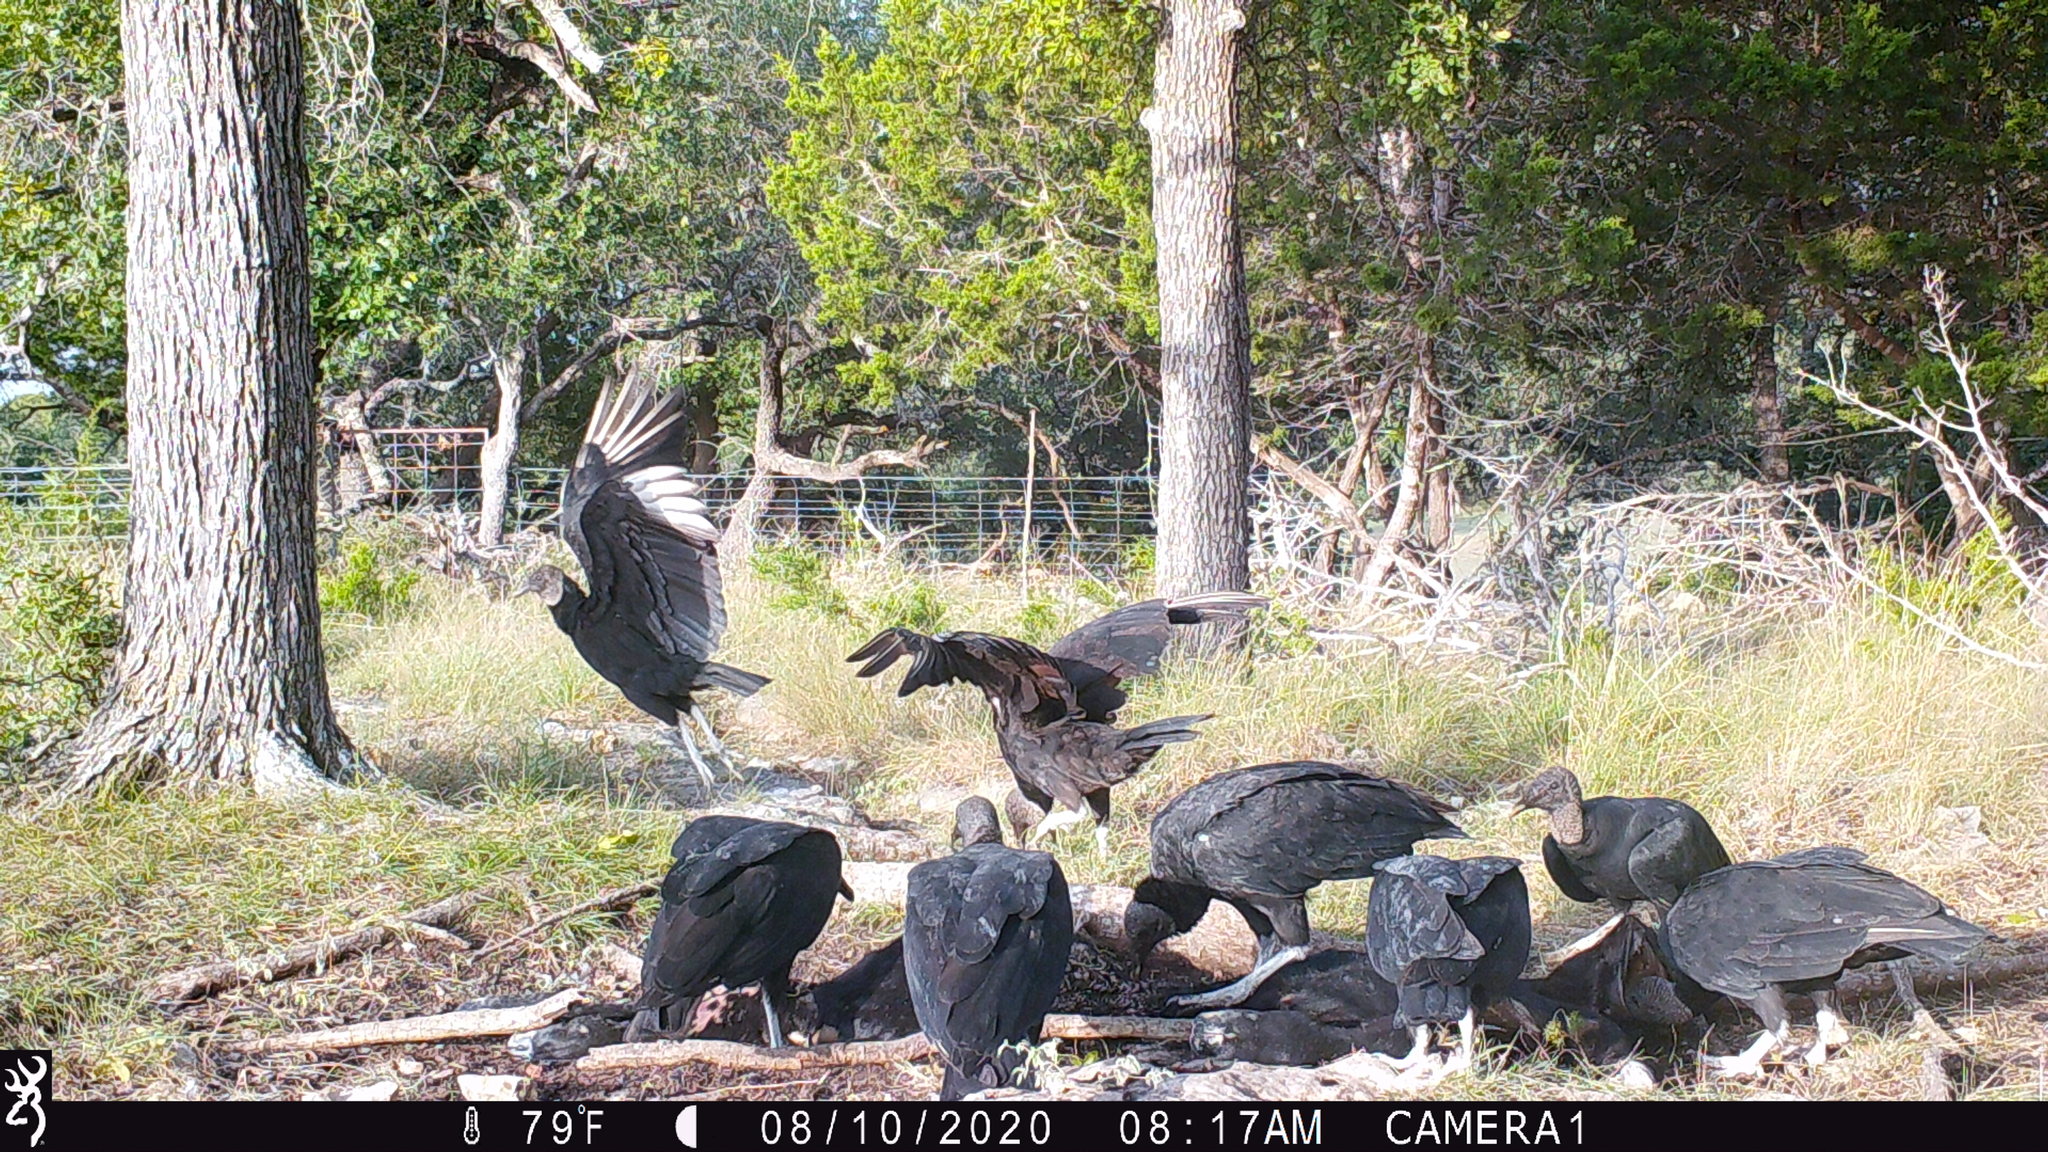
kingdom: Animalia
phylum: Chordata
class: Aves
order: Accipitriformes
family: Cathartidae
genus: Coragyps
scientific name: Coragyps atratus
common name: Black vulture
